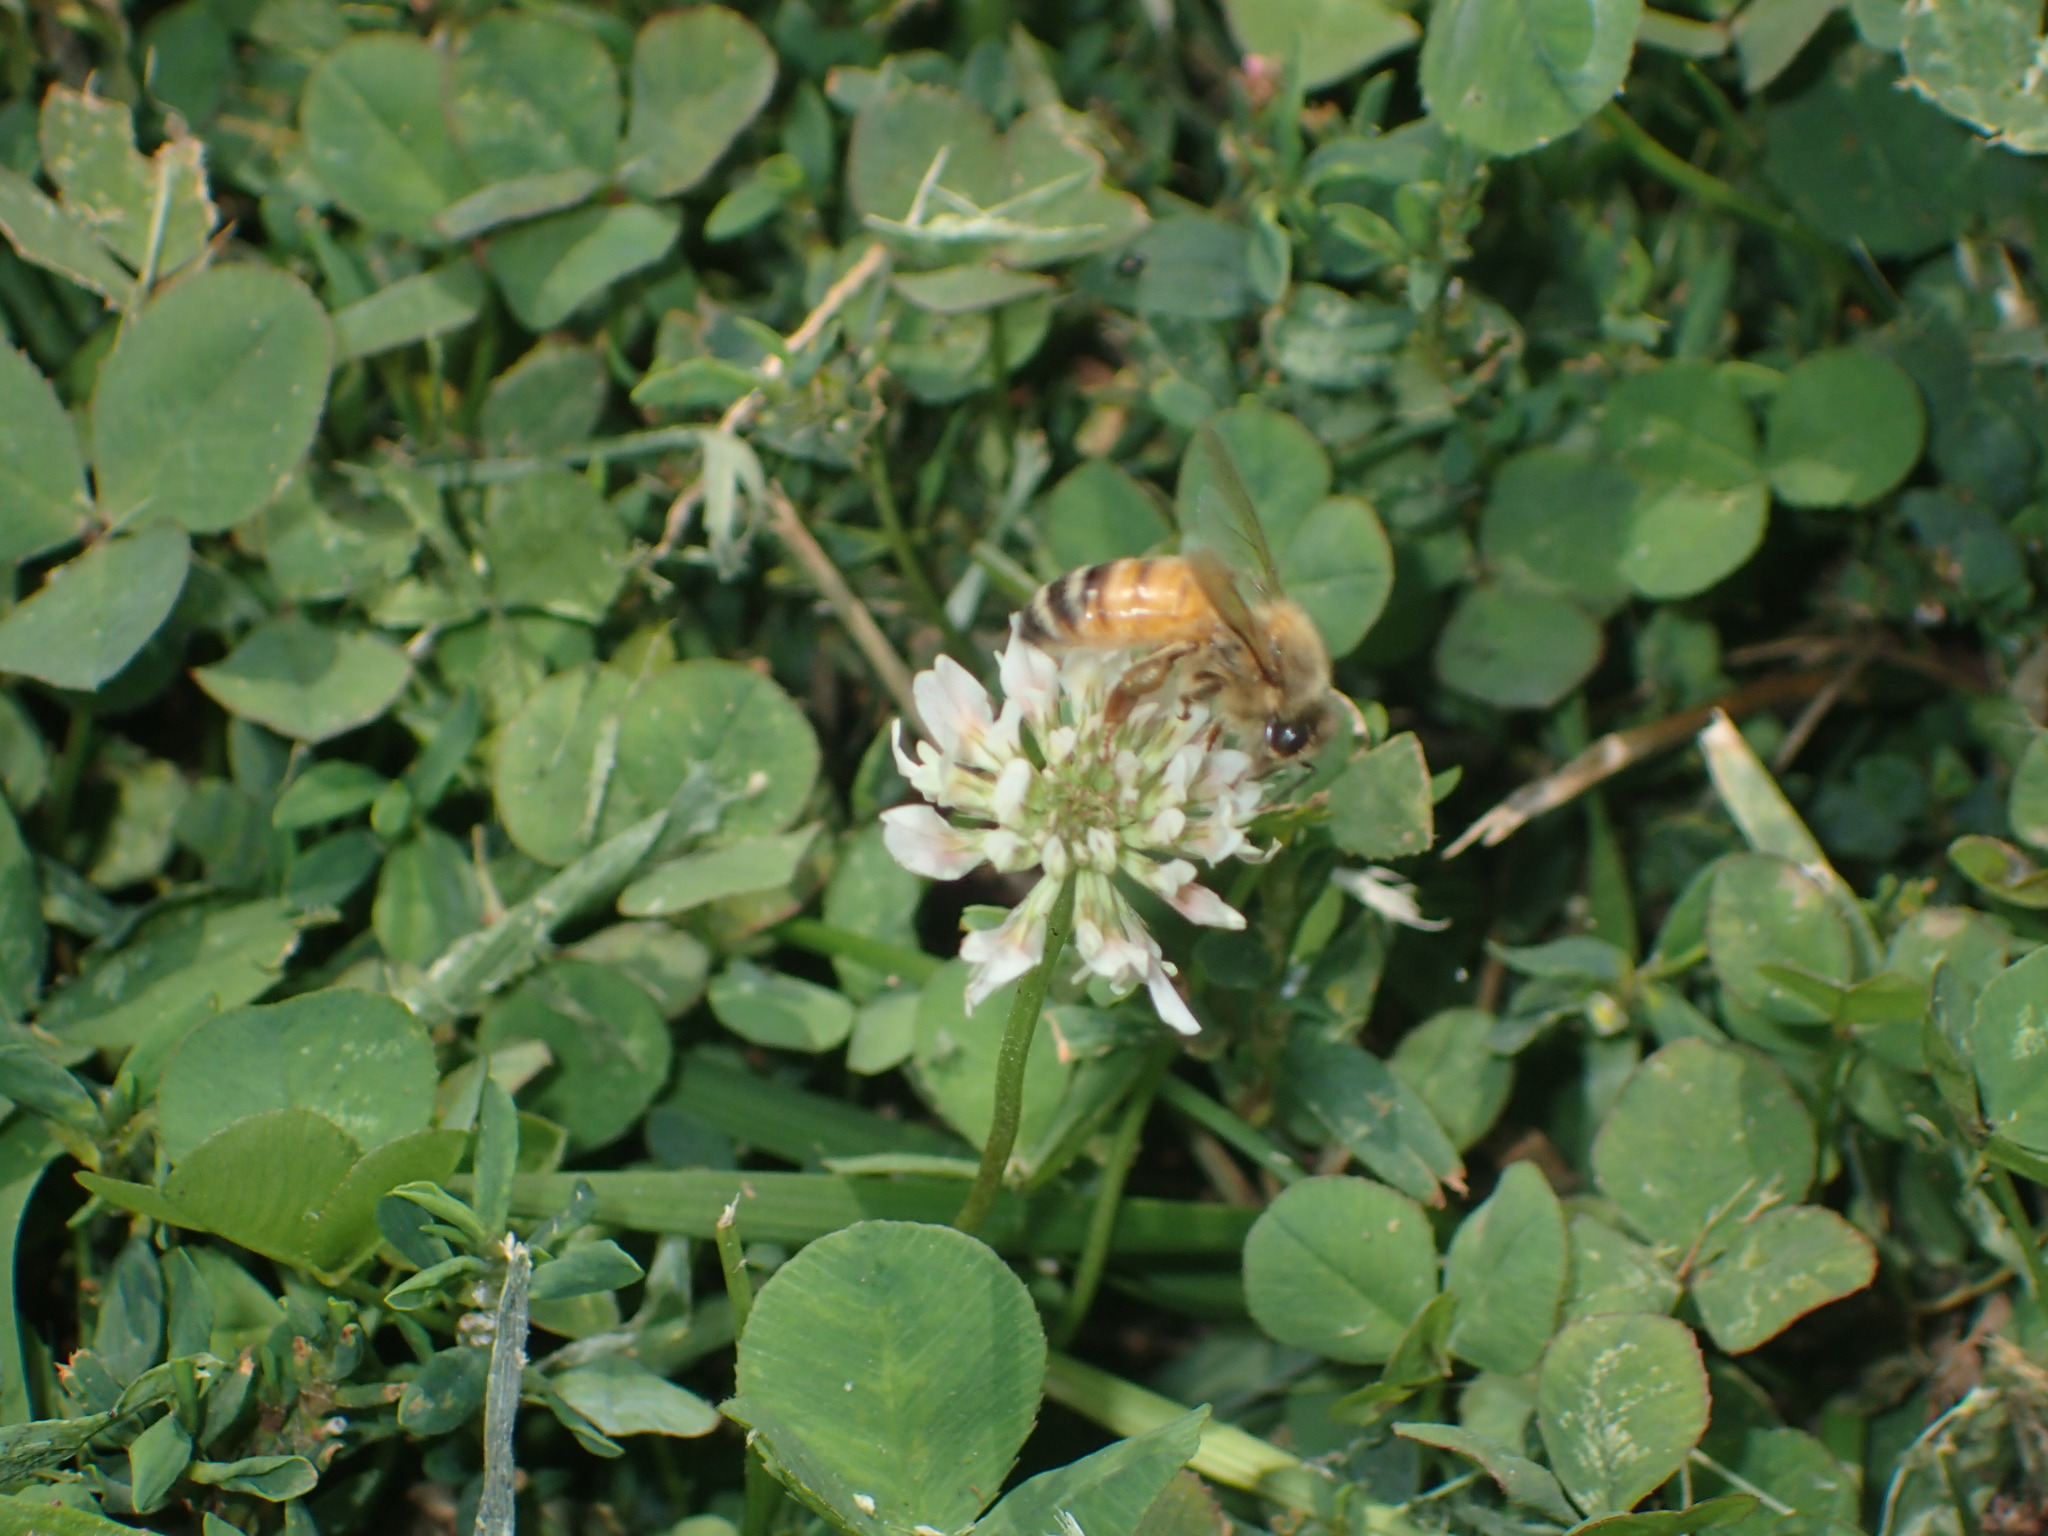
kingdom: Animalia
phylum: Arthropoda
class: Insecta
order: Hymenoptera
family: Apidae
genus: Apis
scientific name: Apis mellifera
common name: Honey bee
